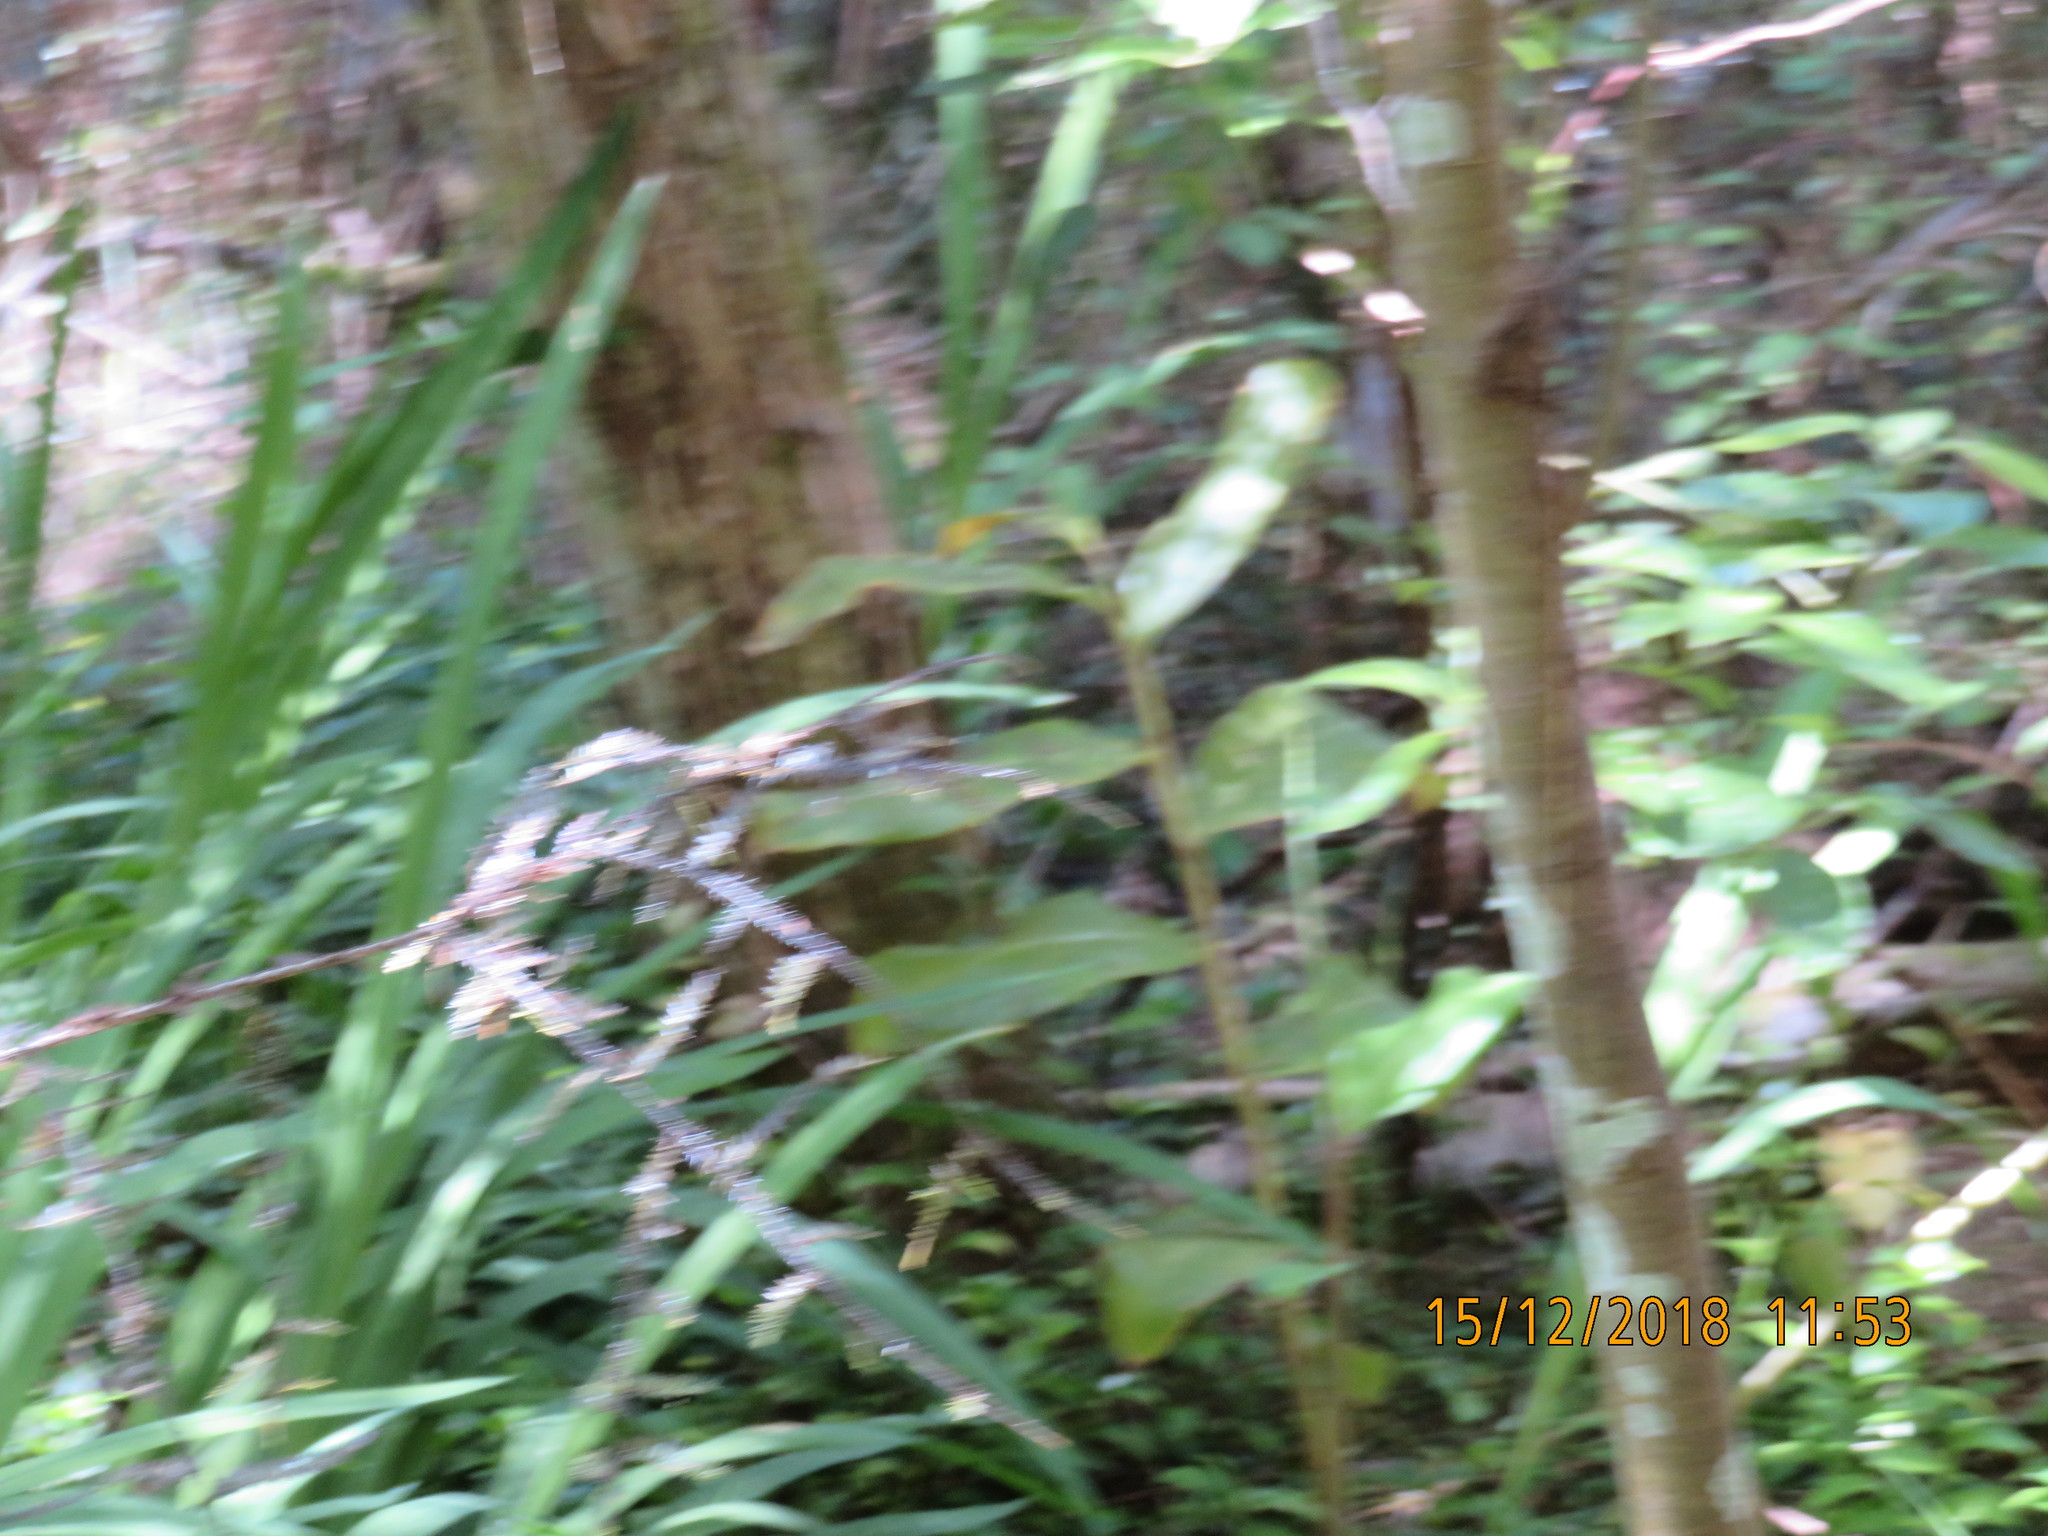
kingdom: Plantae
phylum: Tracheophyta
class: Liliopsida
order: Zingiberales
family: Zingiberaceae
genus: Hedychium
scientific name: Hedychium gardnerianum
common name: Himalayan ginger
